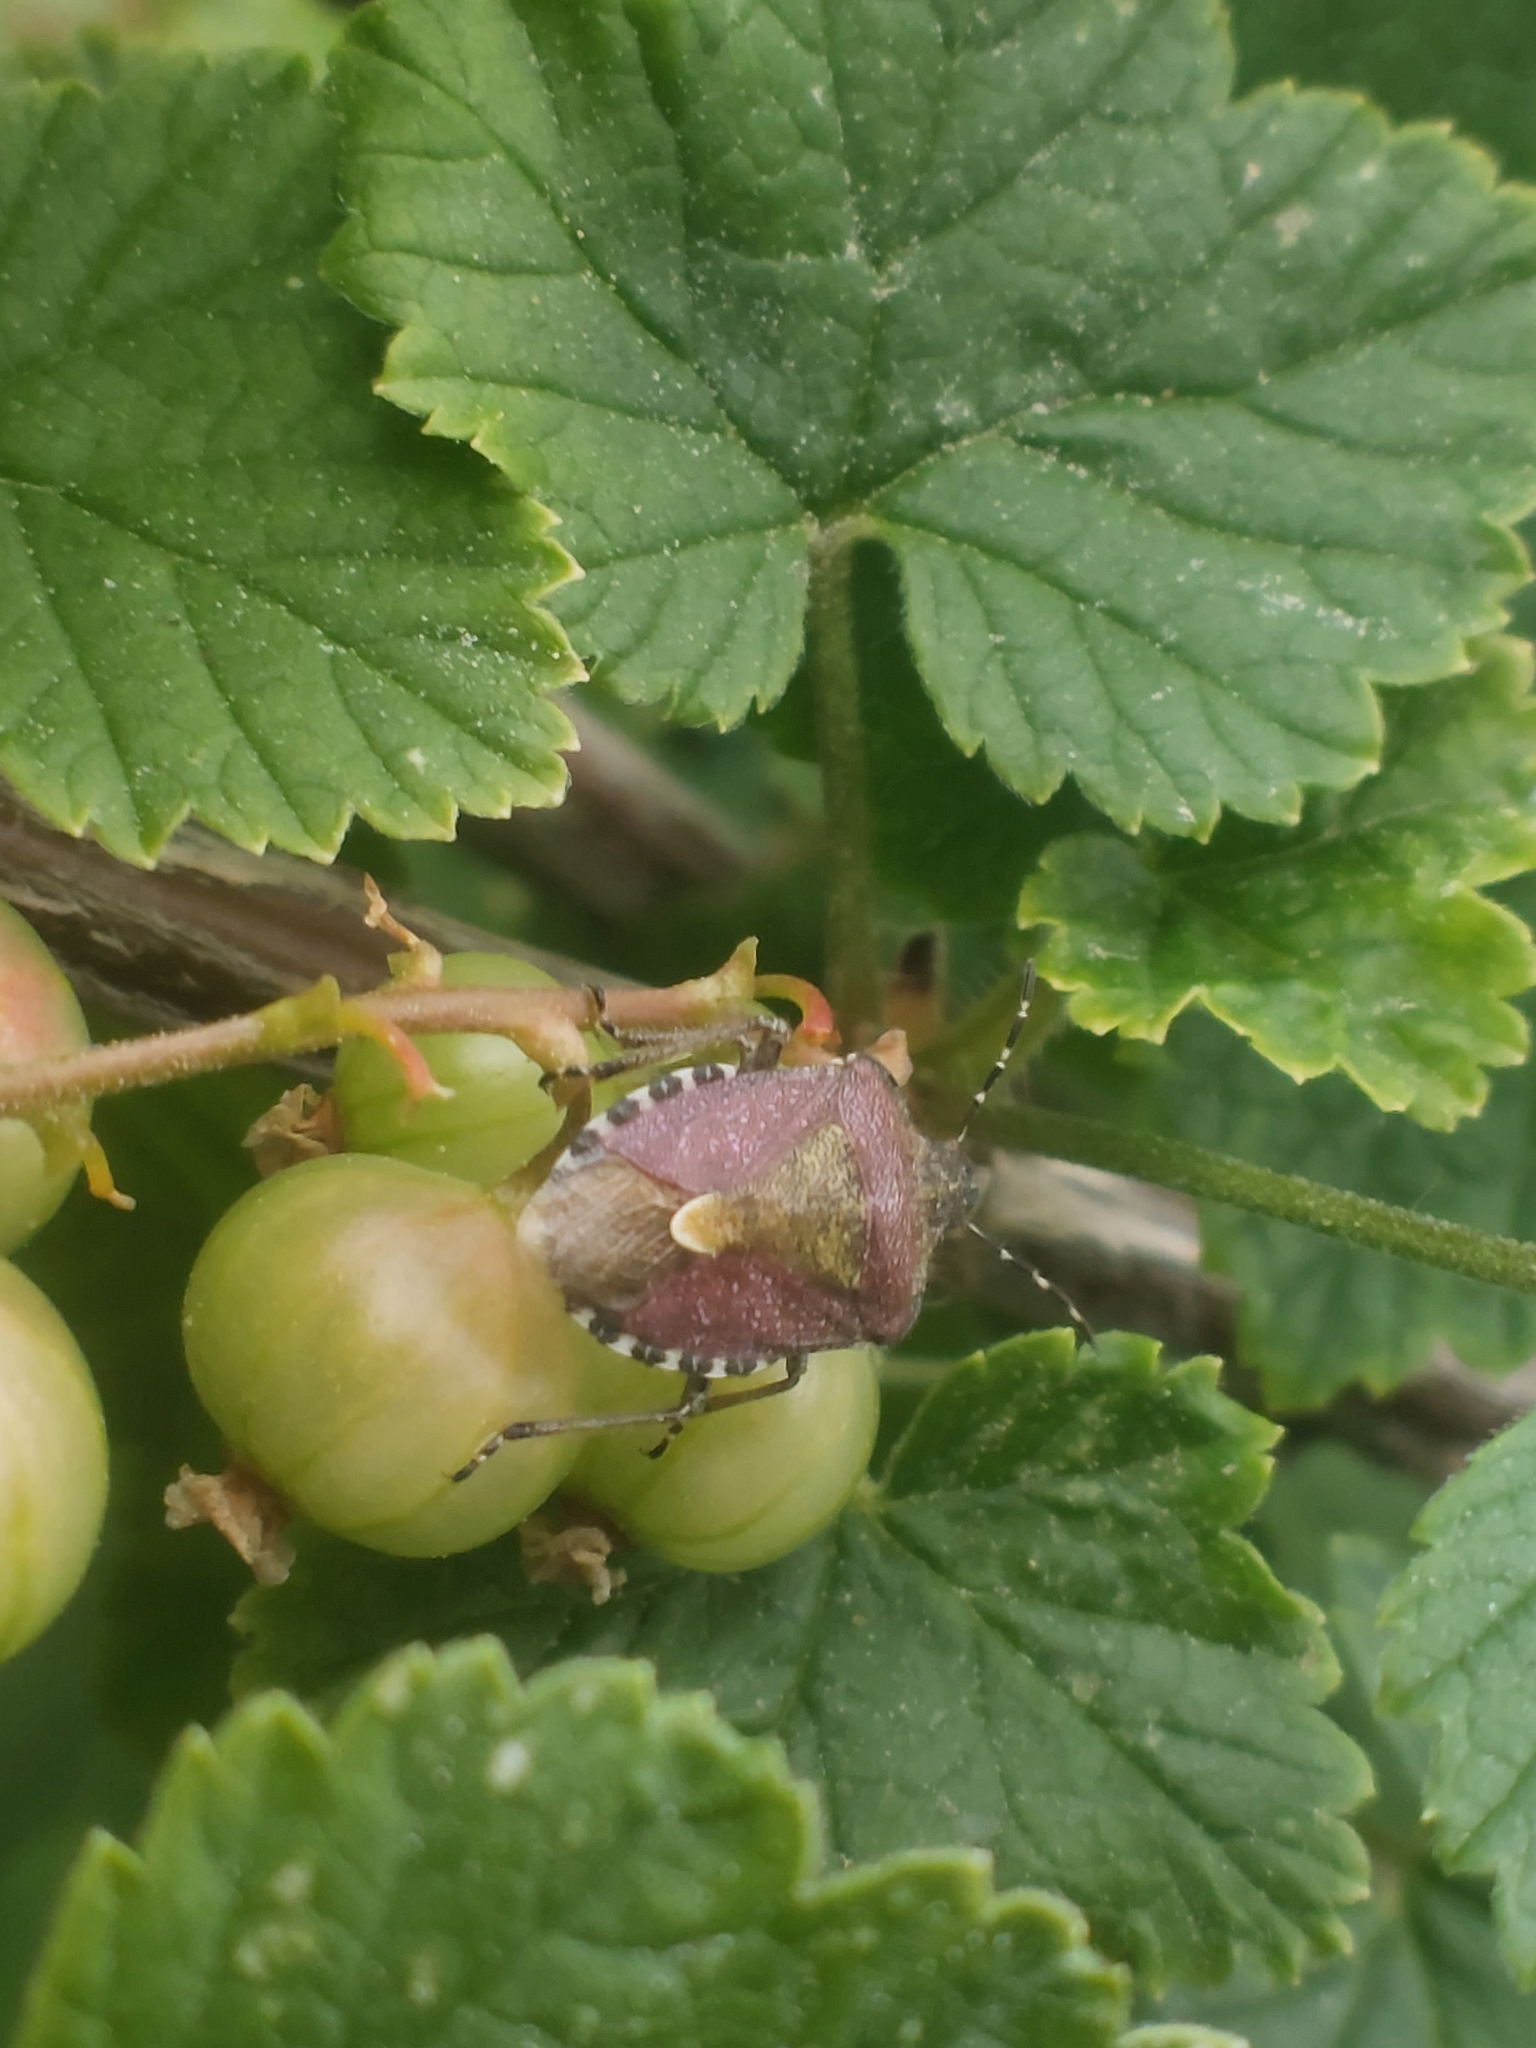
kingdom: Animalia
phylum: Arthropoda
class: Insecta
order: Hemiptera
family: Pentatomidae
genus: Dolycoris
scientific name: Dolycoris baccarum
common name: Sloe bug
